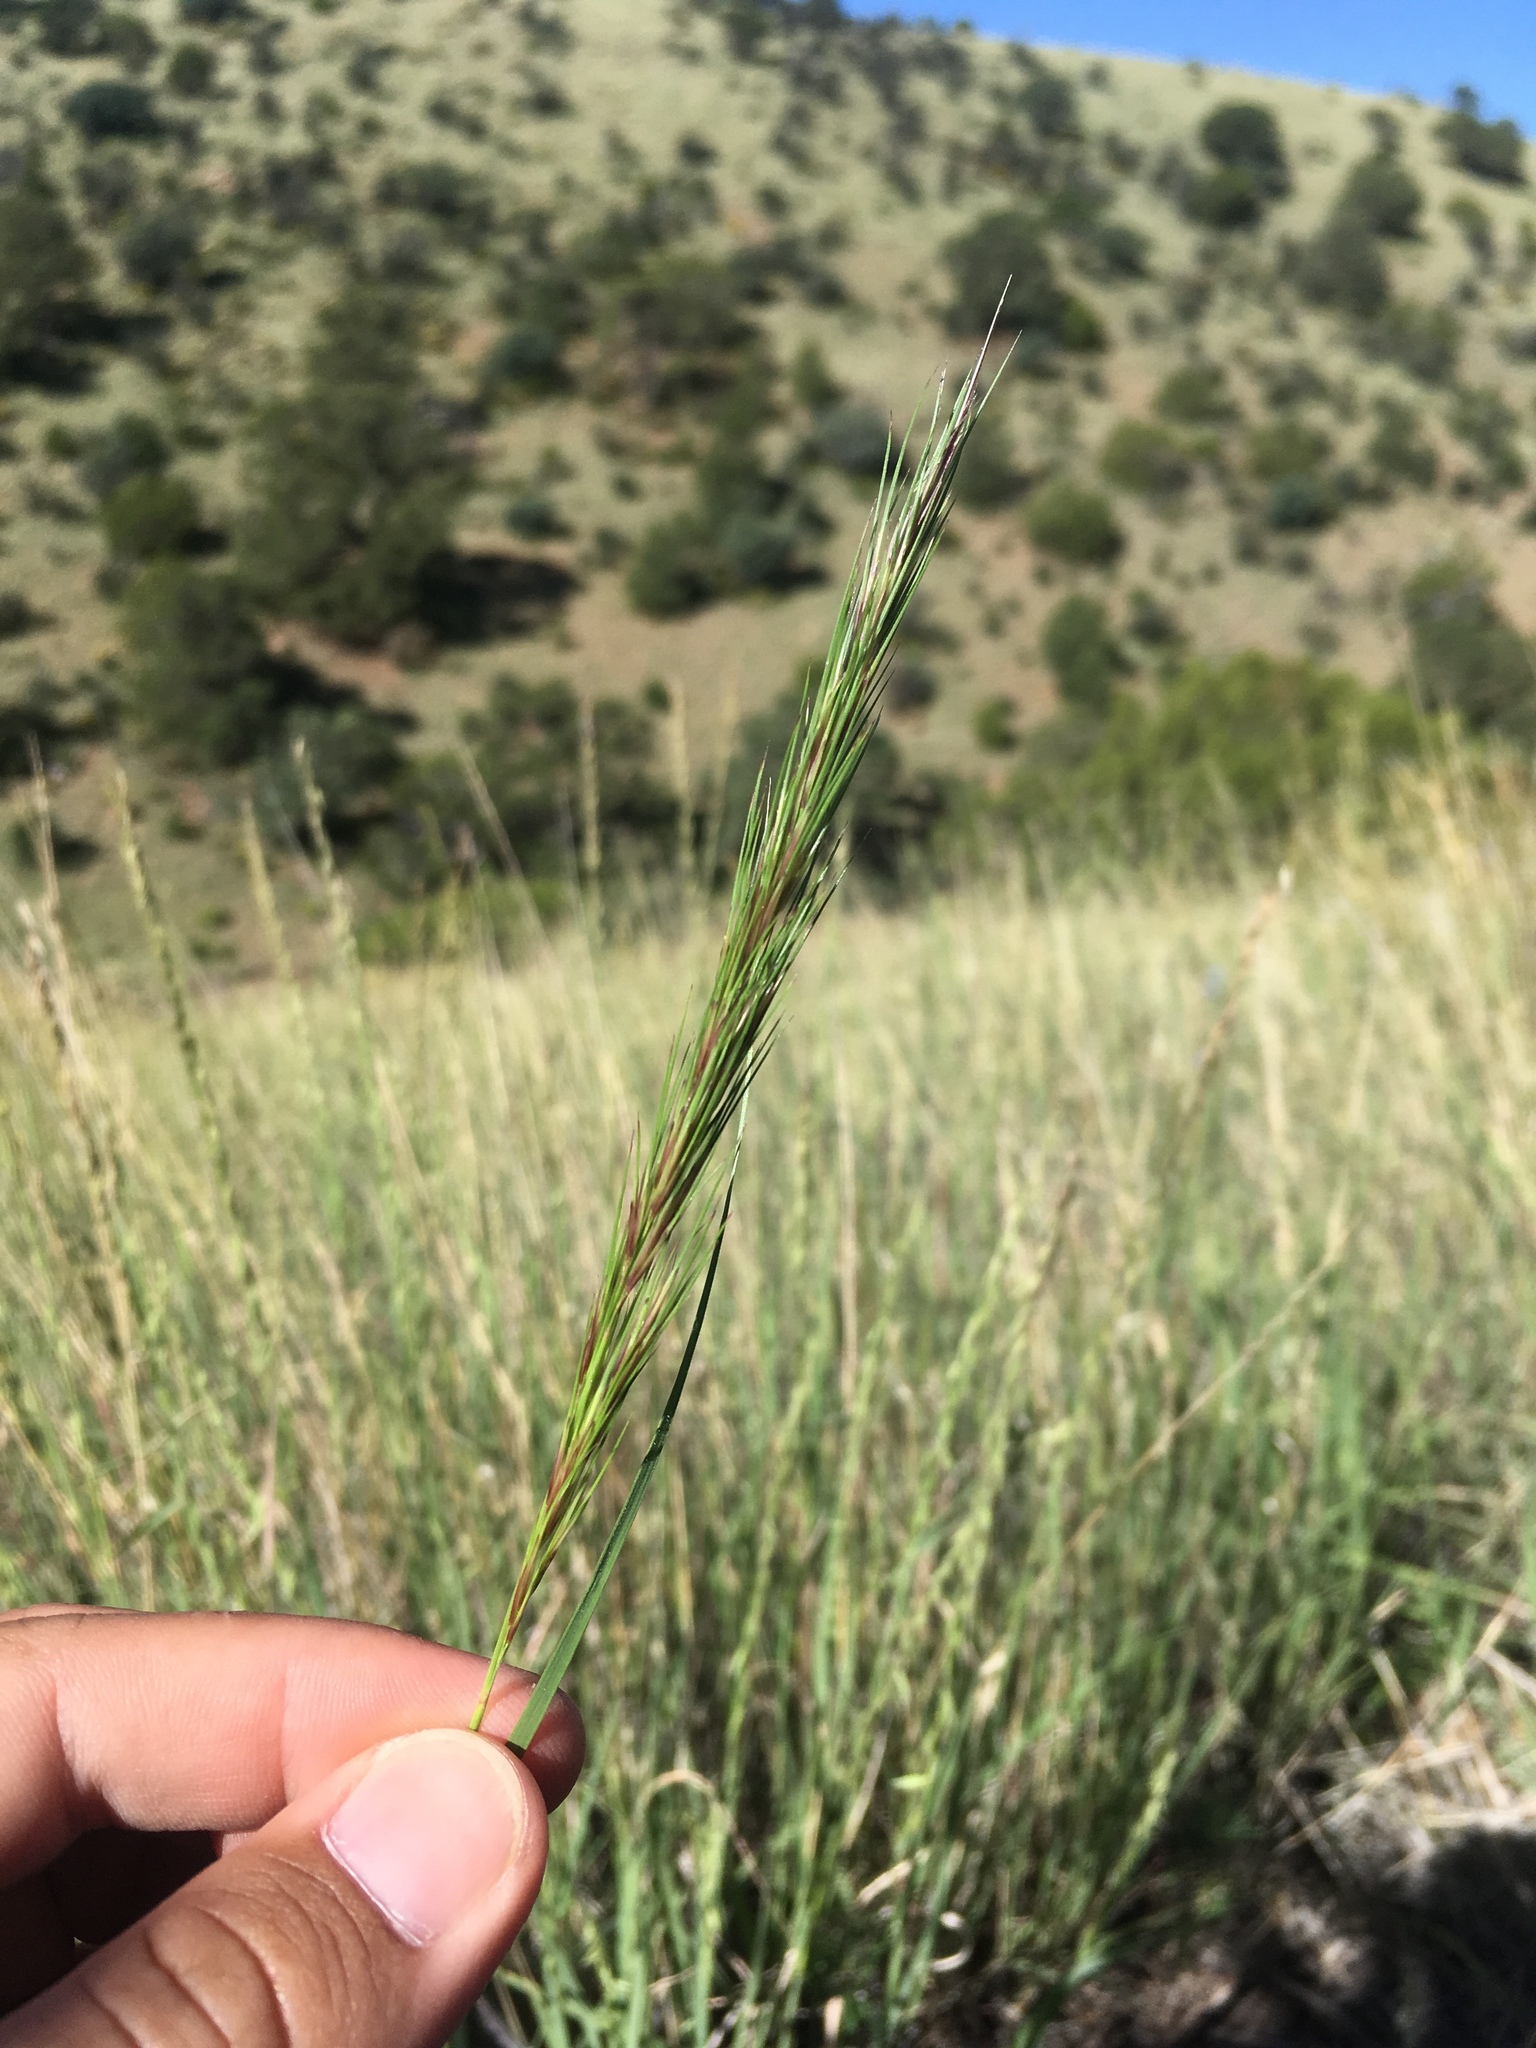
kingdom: Plantae
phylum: Tracheophyta
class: Liliopsida
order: Poales
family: Poaceae
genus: Aristida
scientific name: Aristida adscensionis
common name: Sixweeks threeawn
